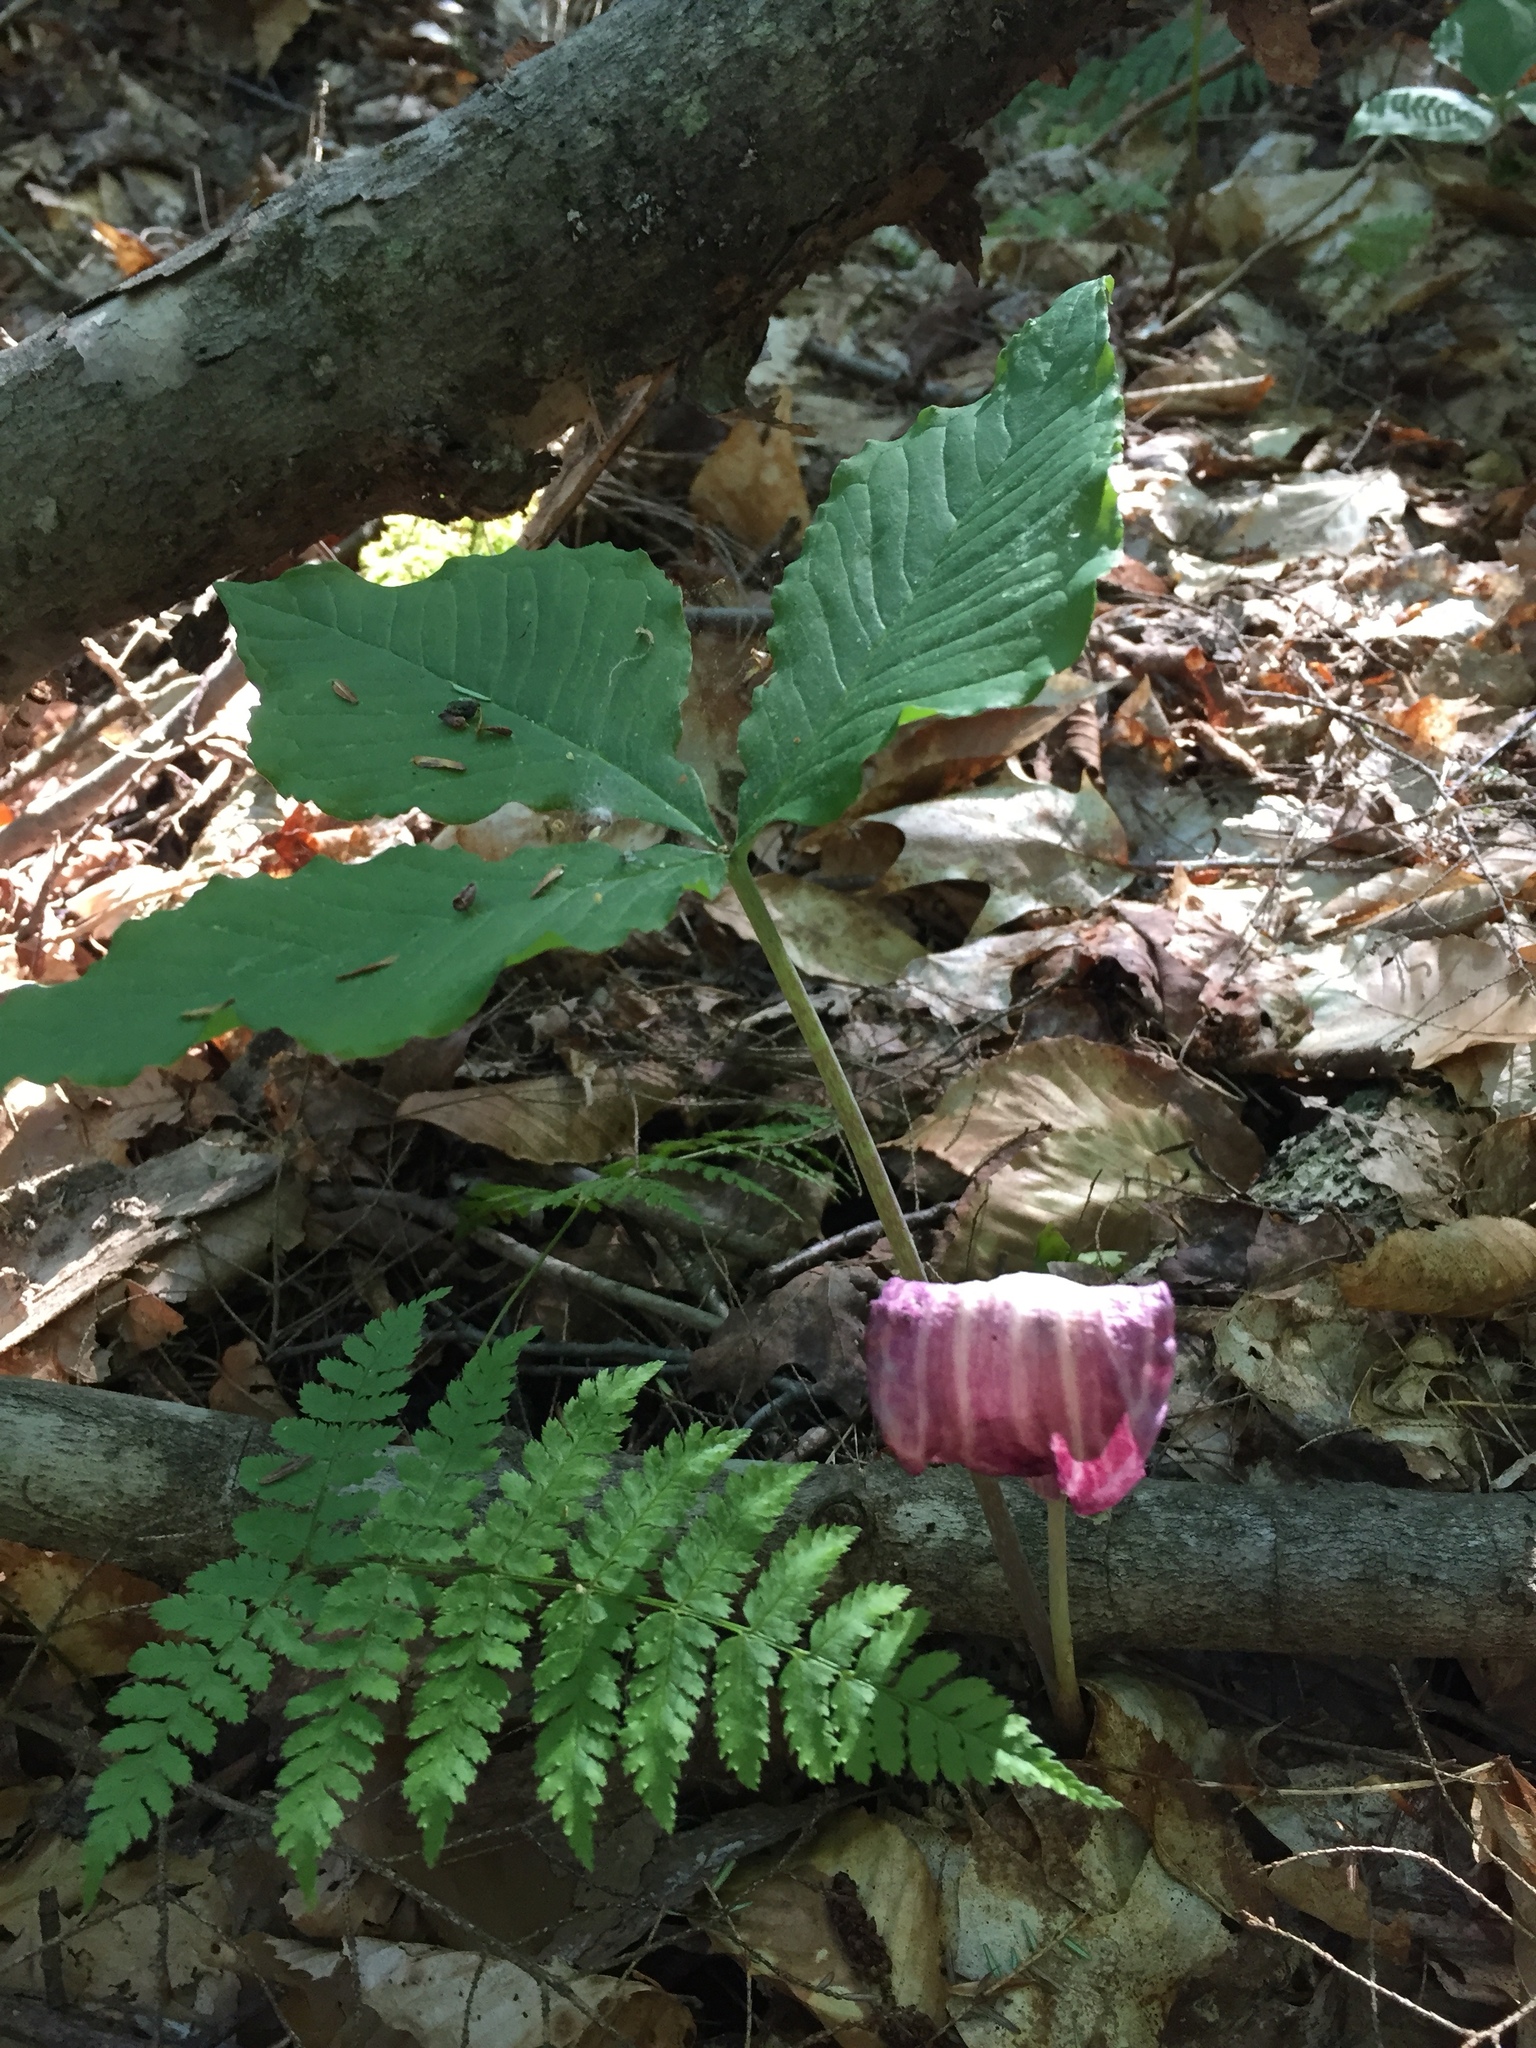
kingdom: Plantae
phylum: Tracheophyta
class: Liliopsida
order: Alismatales
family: Araceae
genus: Arisaema
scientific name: Arisaema triphyllum
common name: Jack-in-the-pulpit
